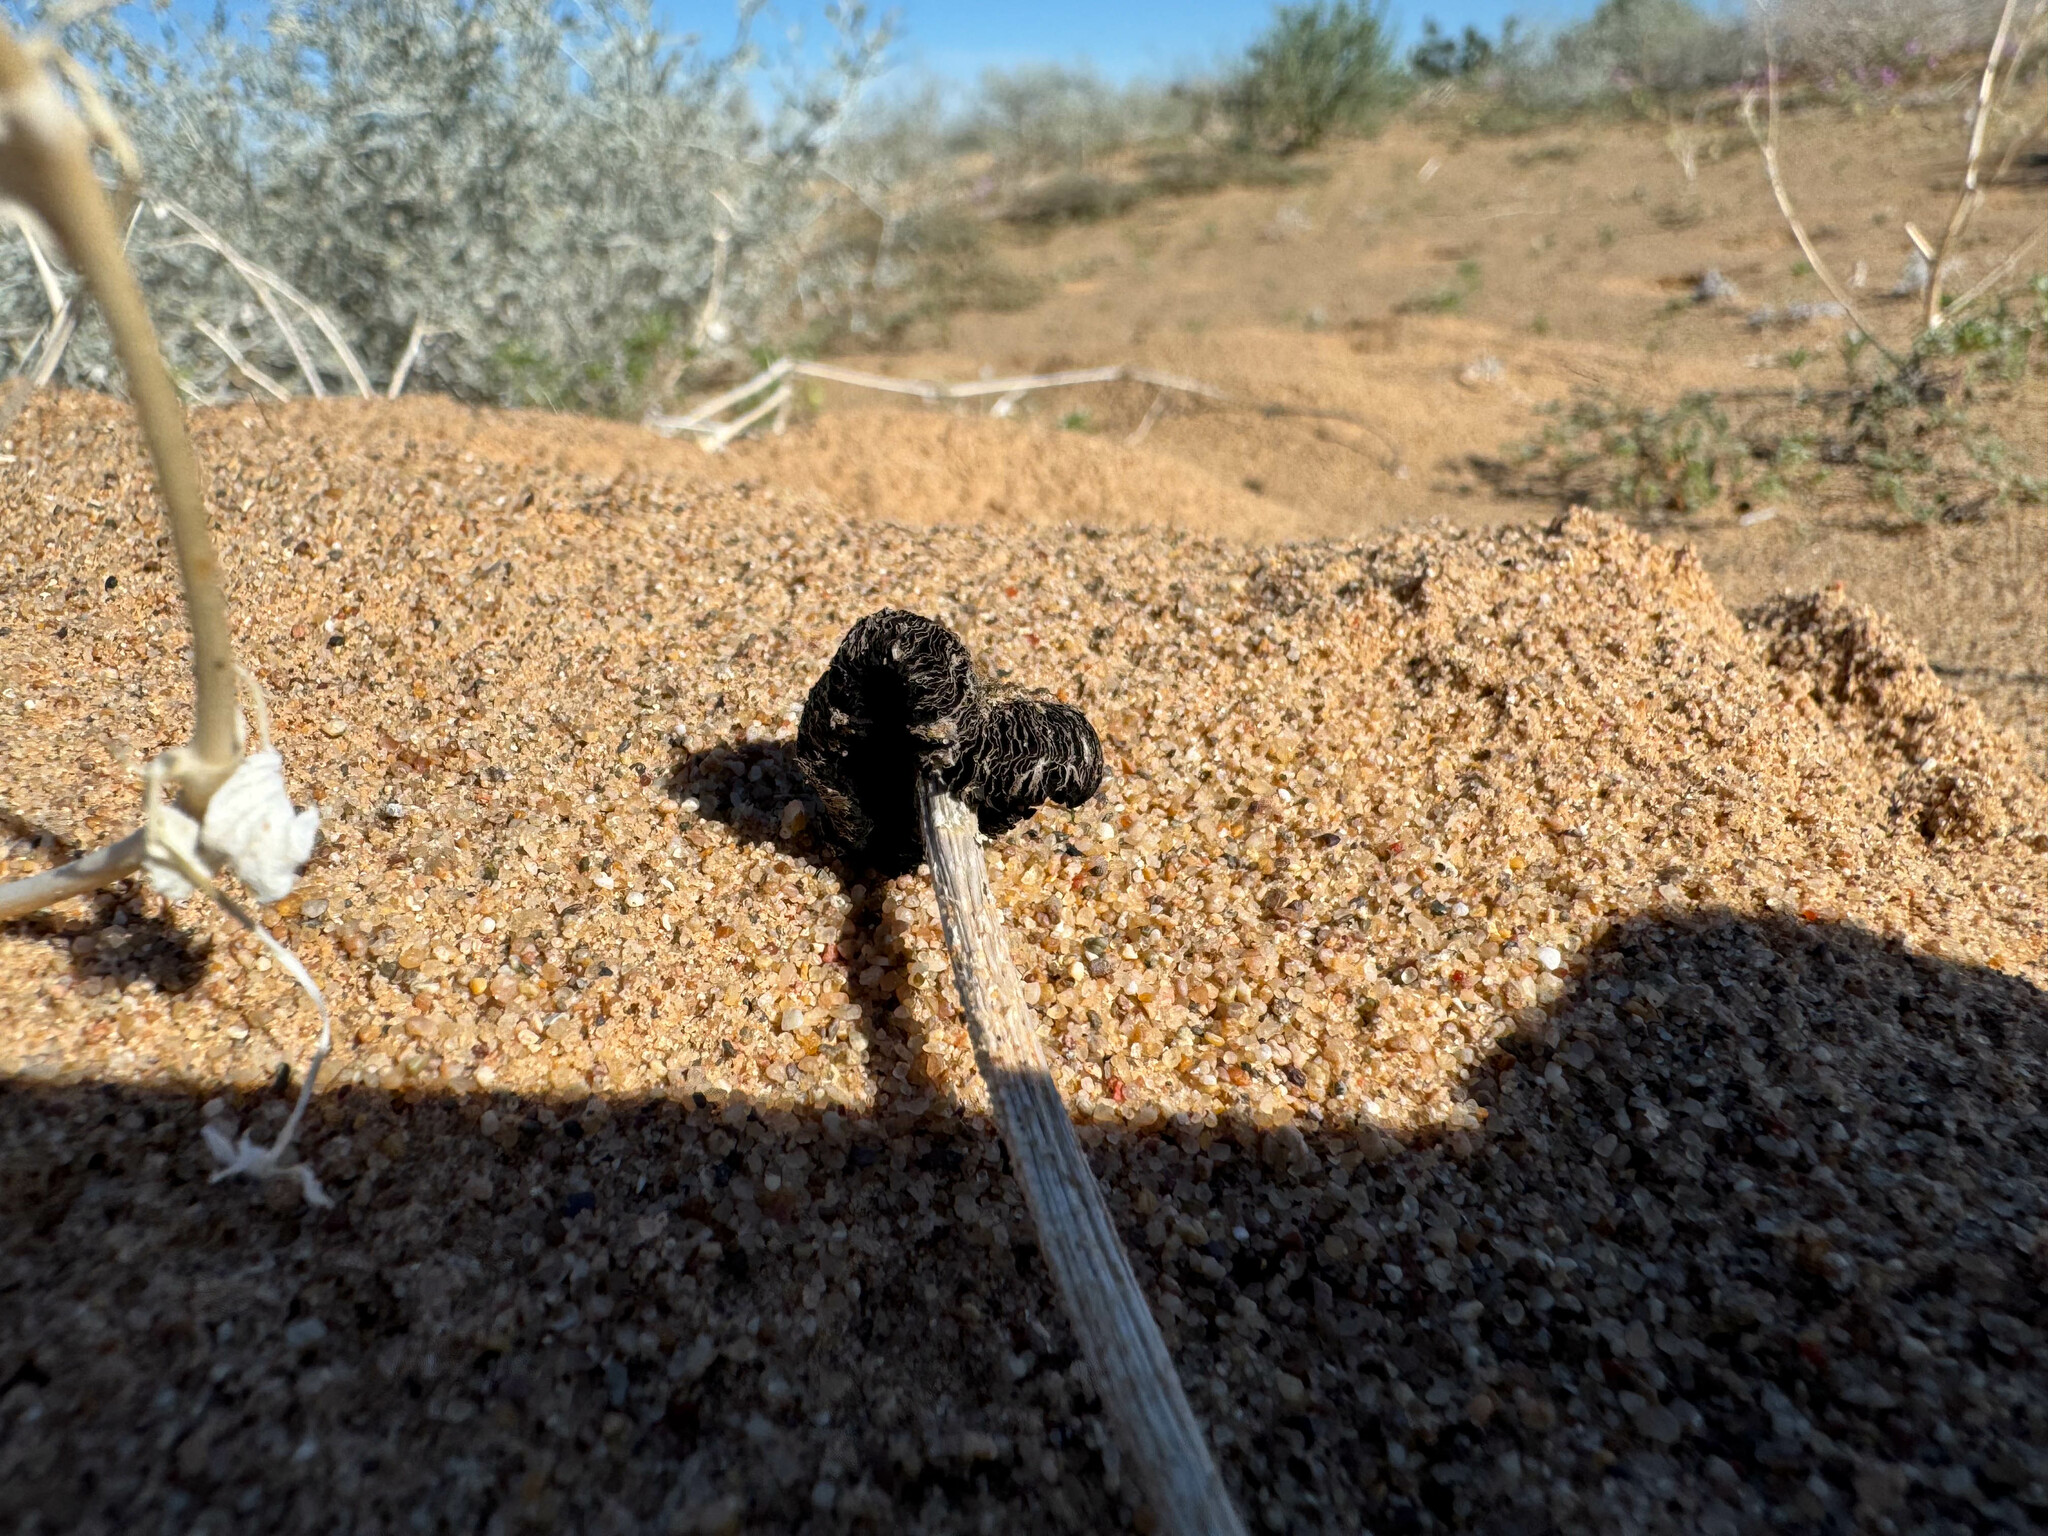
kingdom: Fungi
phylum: Basidiomycota
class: Agaricomycetes
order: Agaricales
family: Agaricaceae
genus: Montagnea
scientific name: Montagnea arenaria
